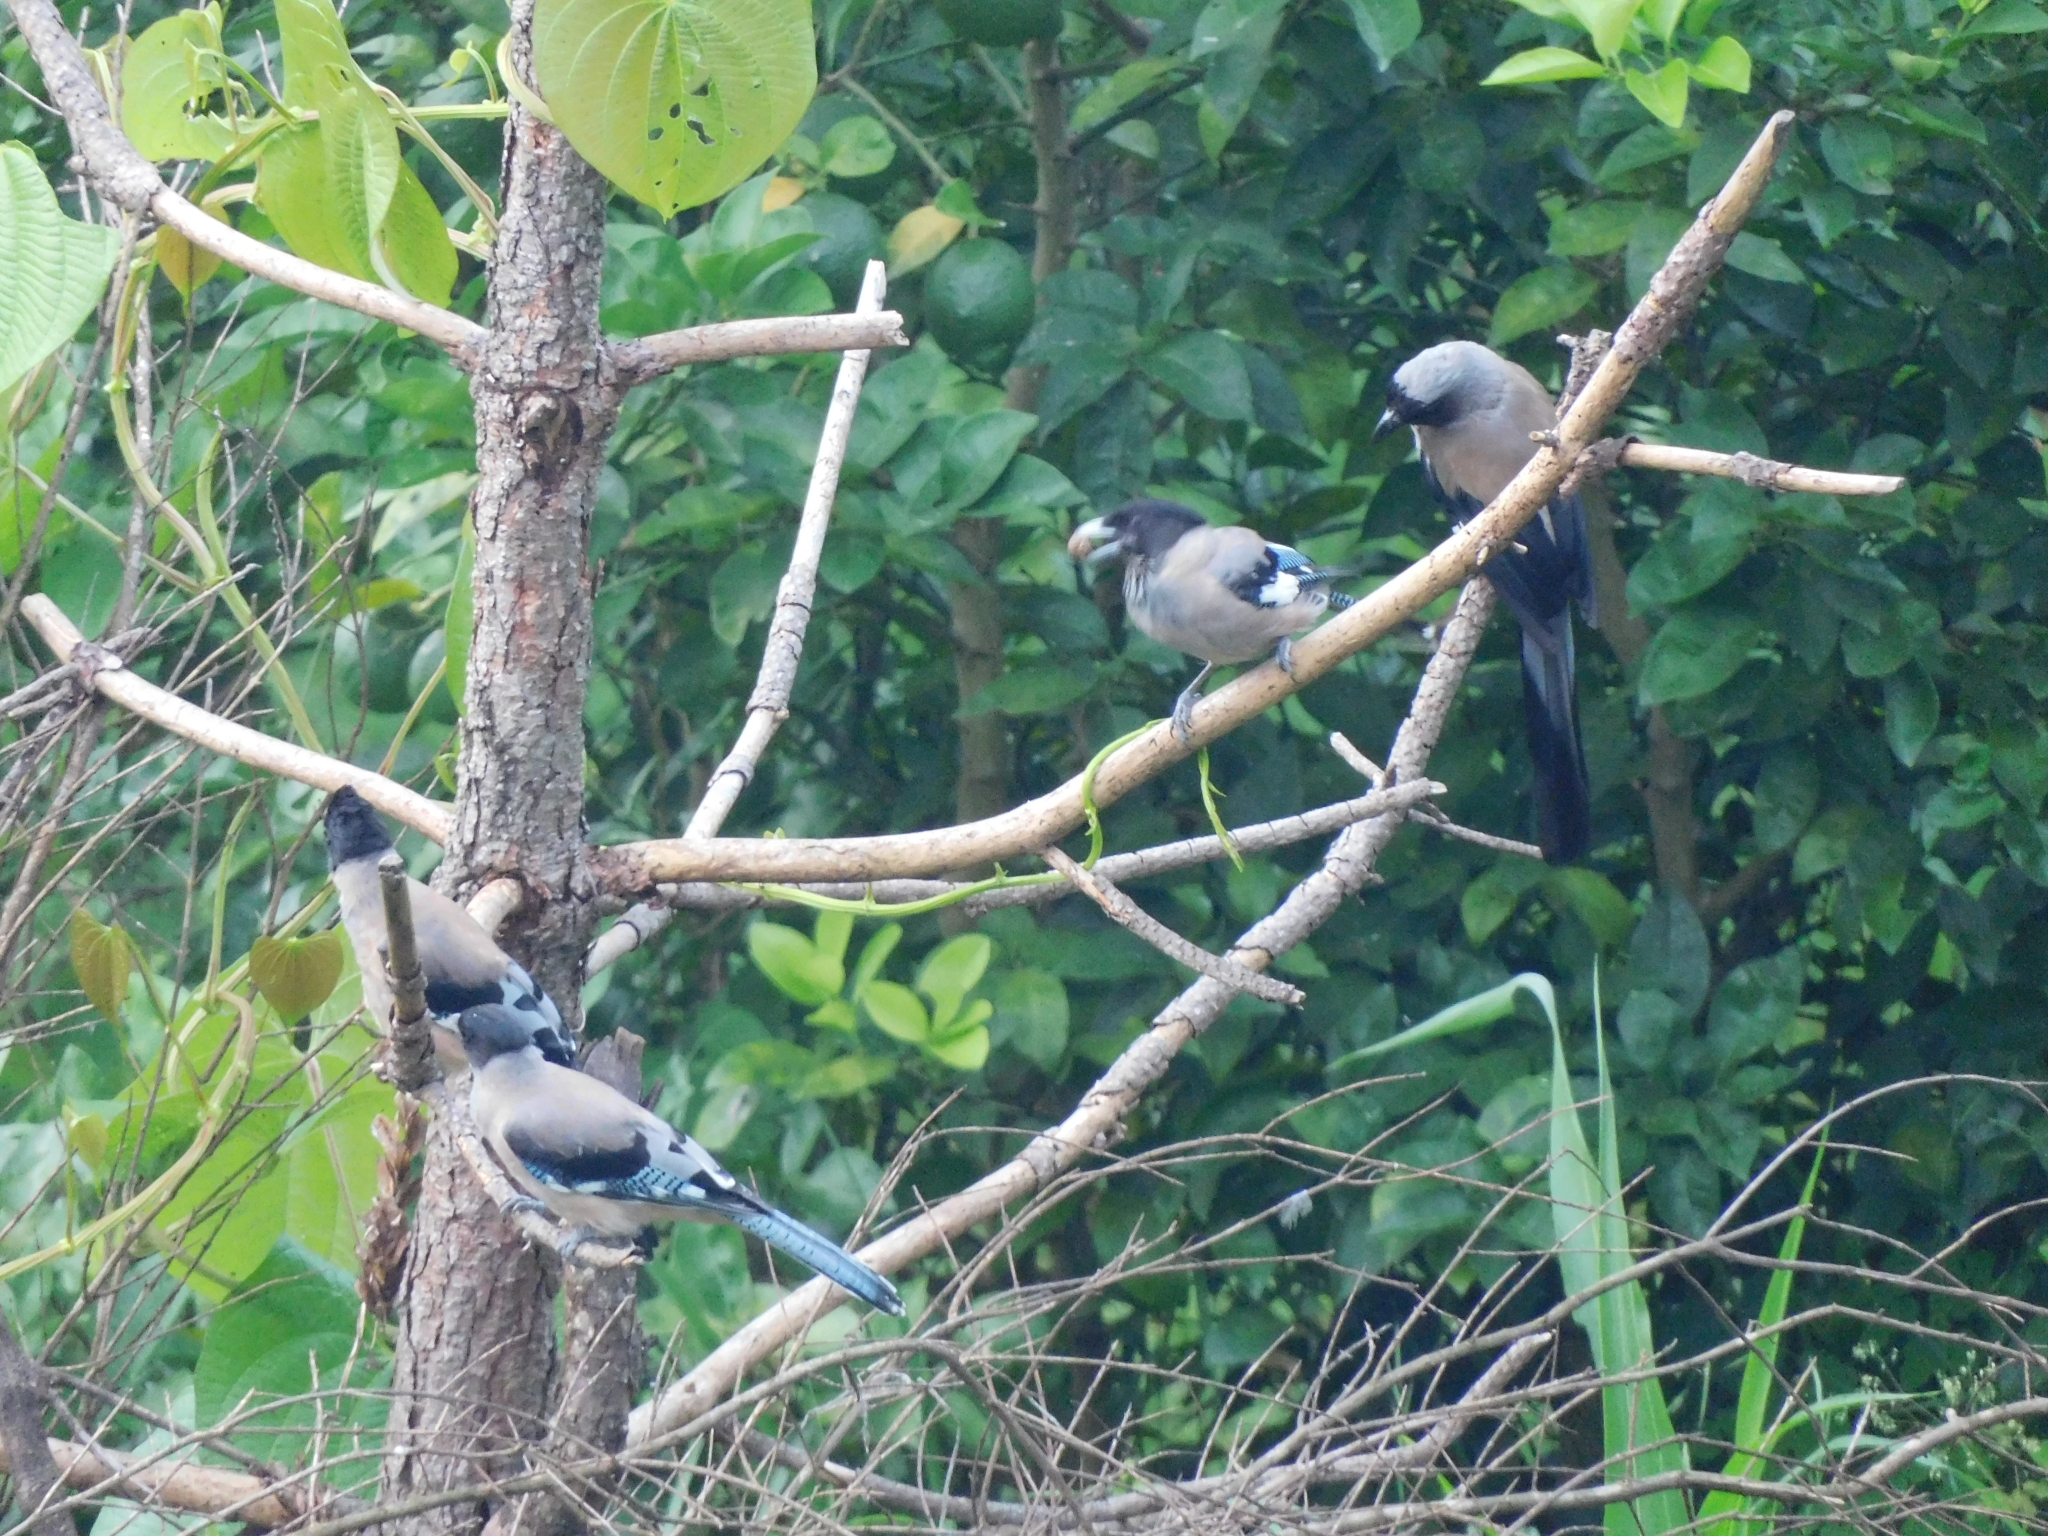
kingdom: Animalia
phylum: Chordata
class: Aves
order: Passeriformes
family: Corvidae
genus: Garrulus
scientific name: Garrulus lanceolatus
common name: Black-headed jay
